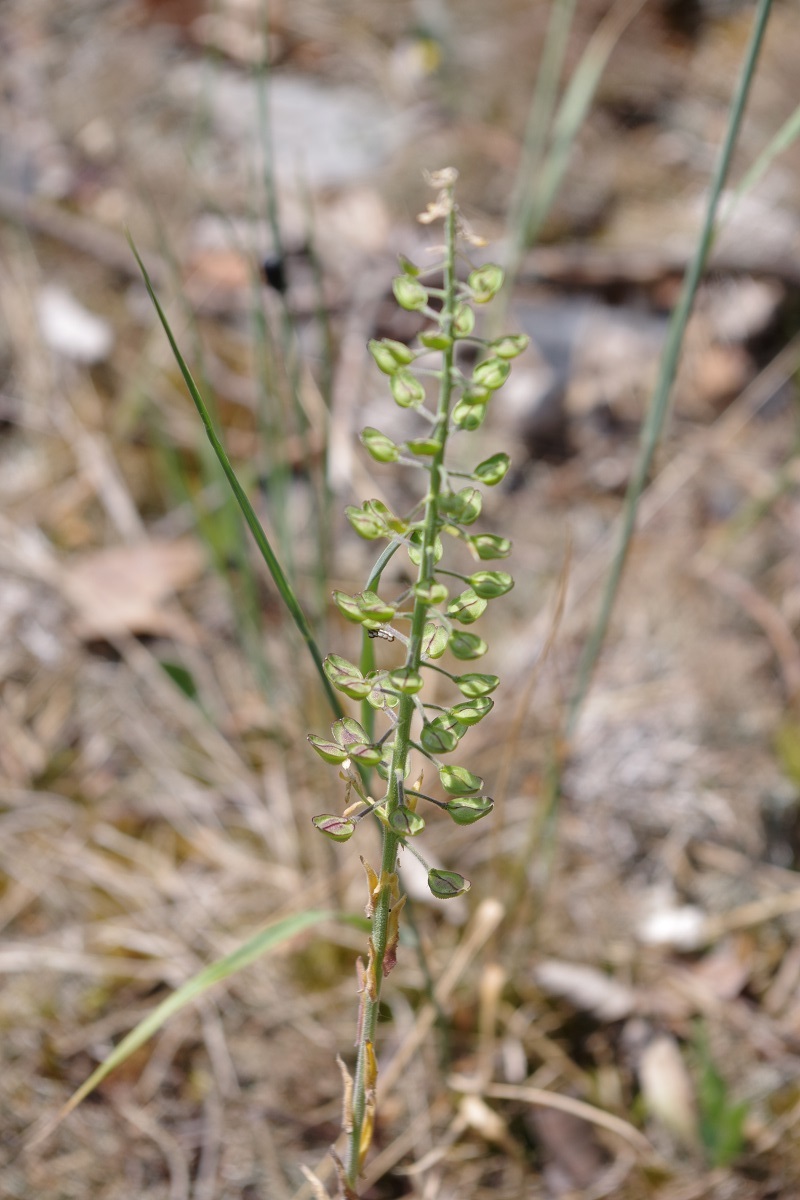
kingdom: Plantae
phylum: Tracheophyta
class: Magnoliopsida
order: Brassicales
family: Brassicaceae
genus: Lepidium
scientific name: Lepidium campestre
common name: Field pepperwort
